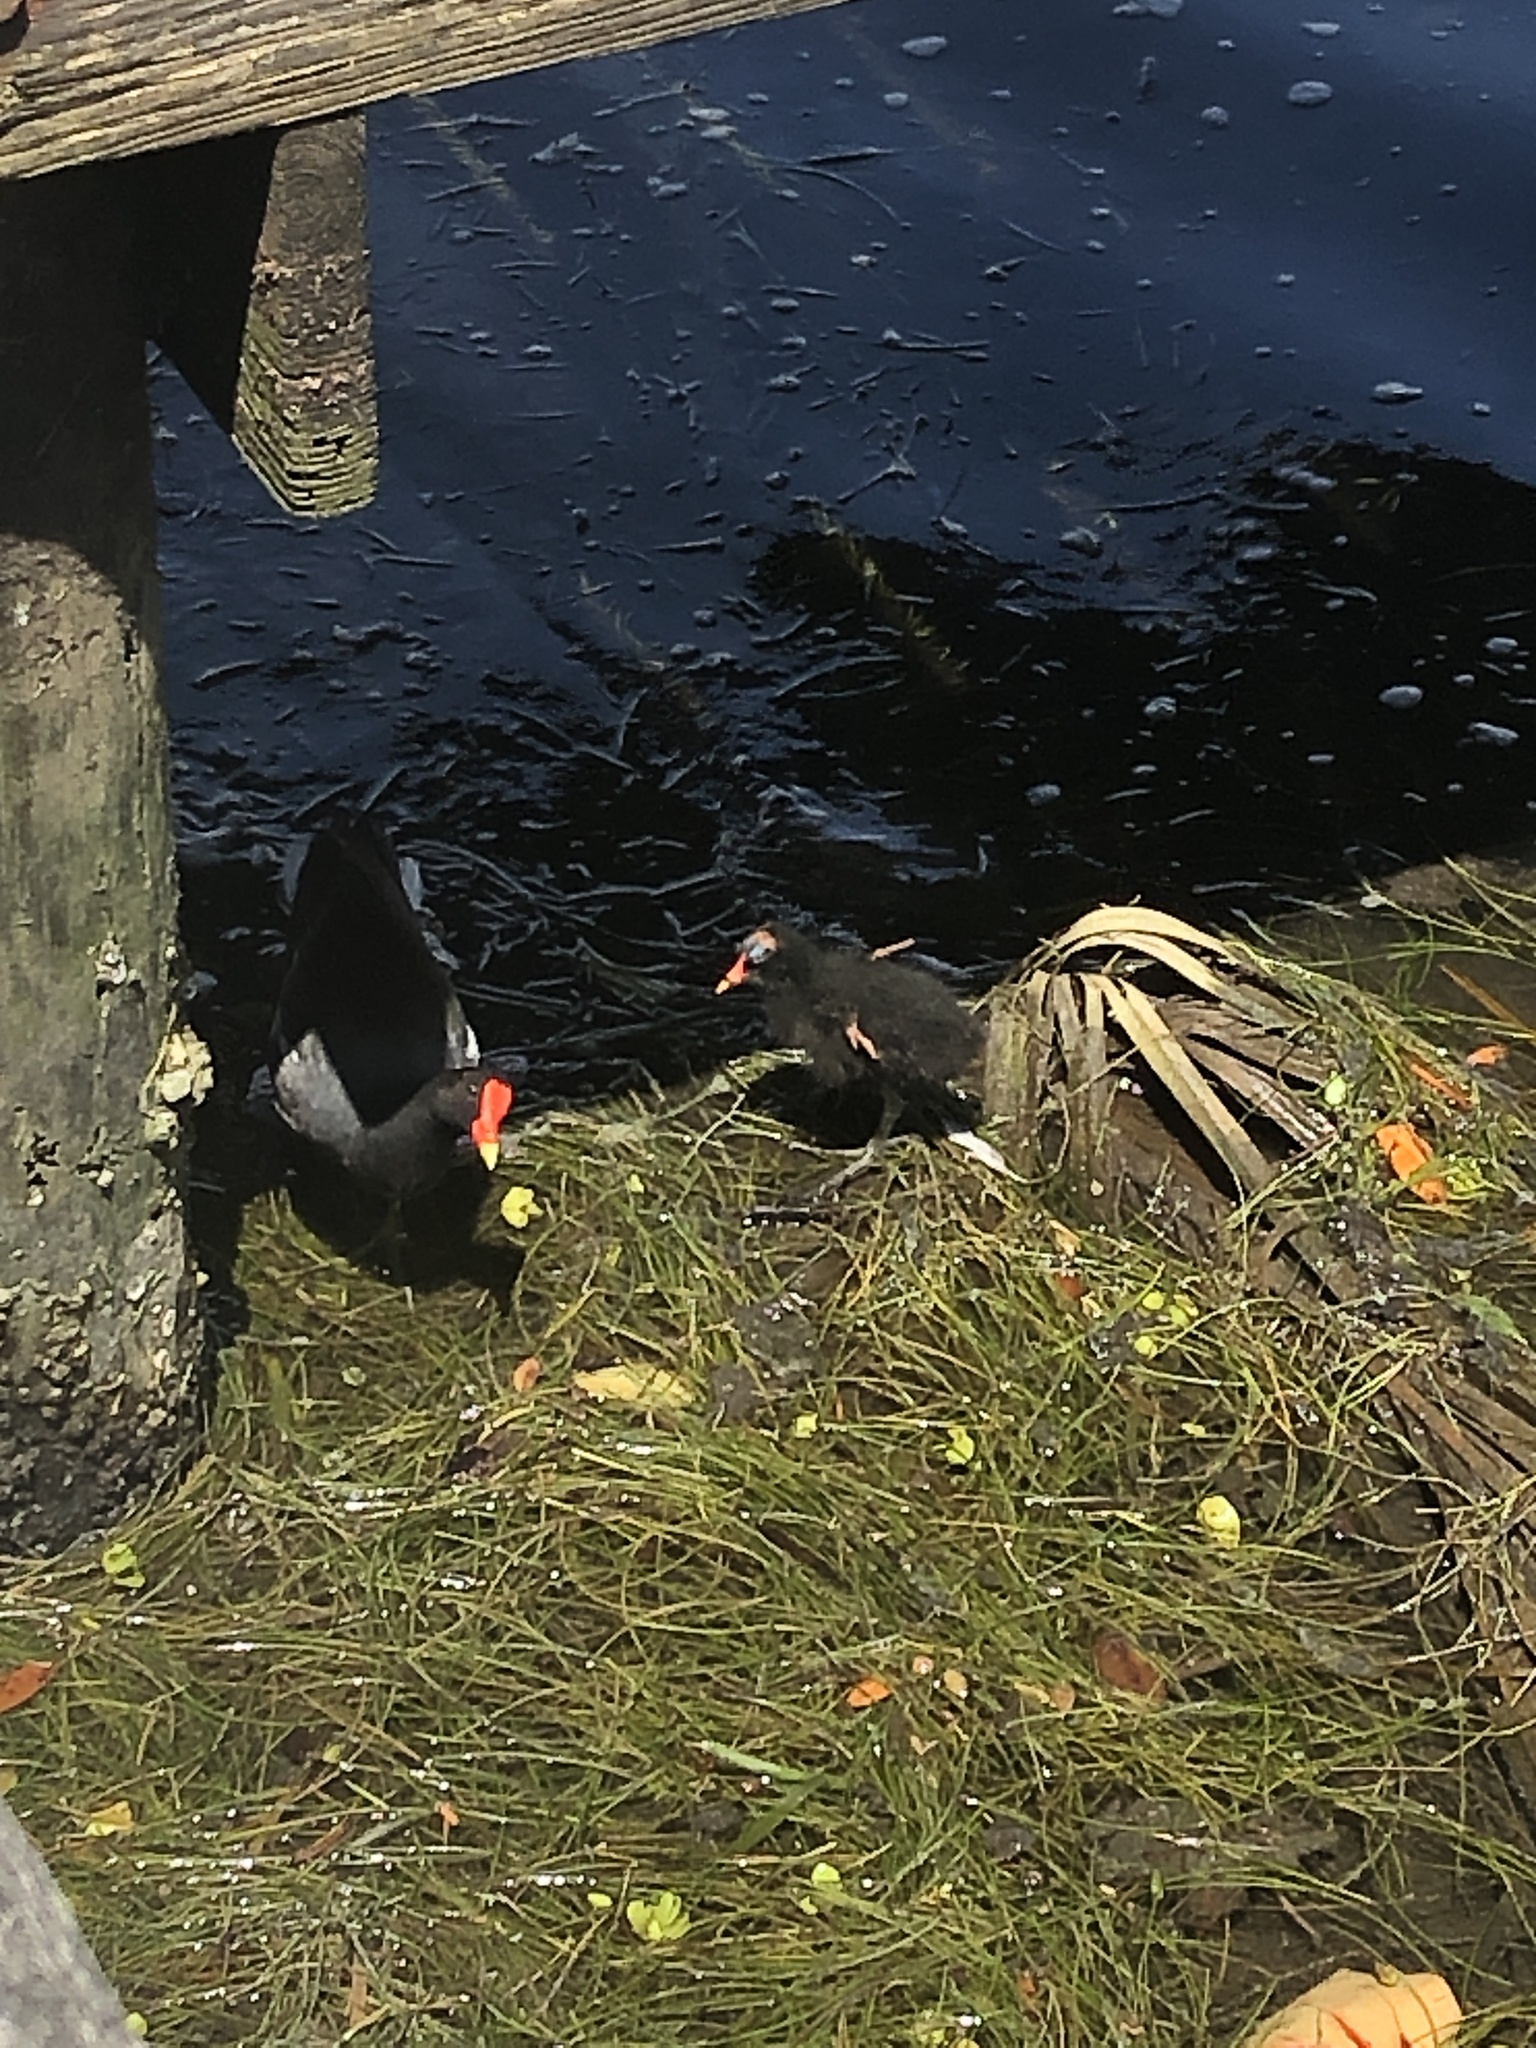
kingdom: Animalia
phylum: Chordata
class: Aves
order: Gruiformes
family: Rallidae
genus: Gallinula
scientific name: Gallinula chloropus
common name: Common moorhen
